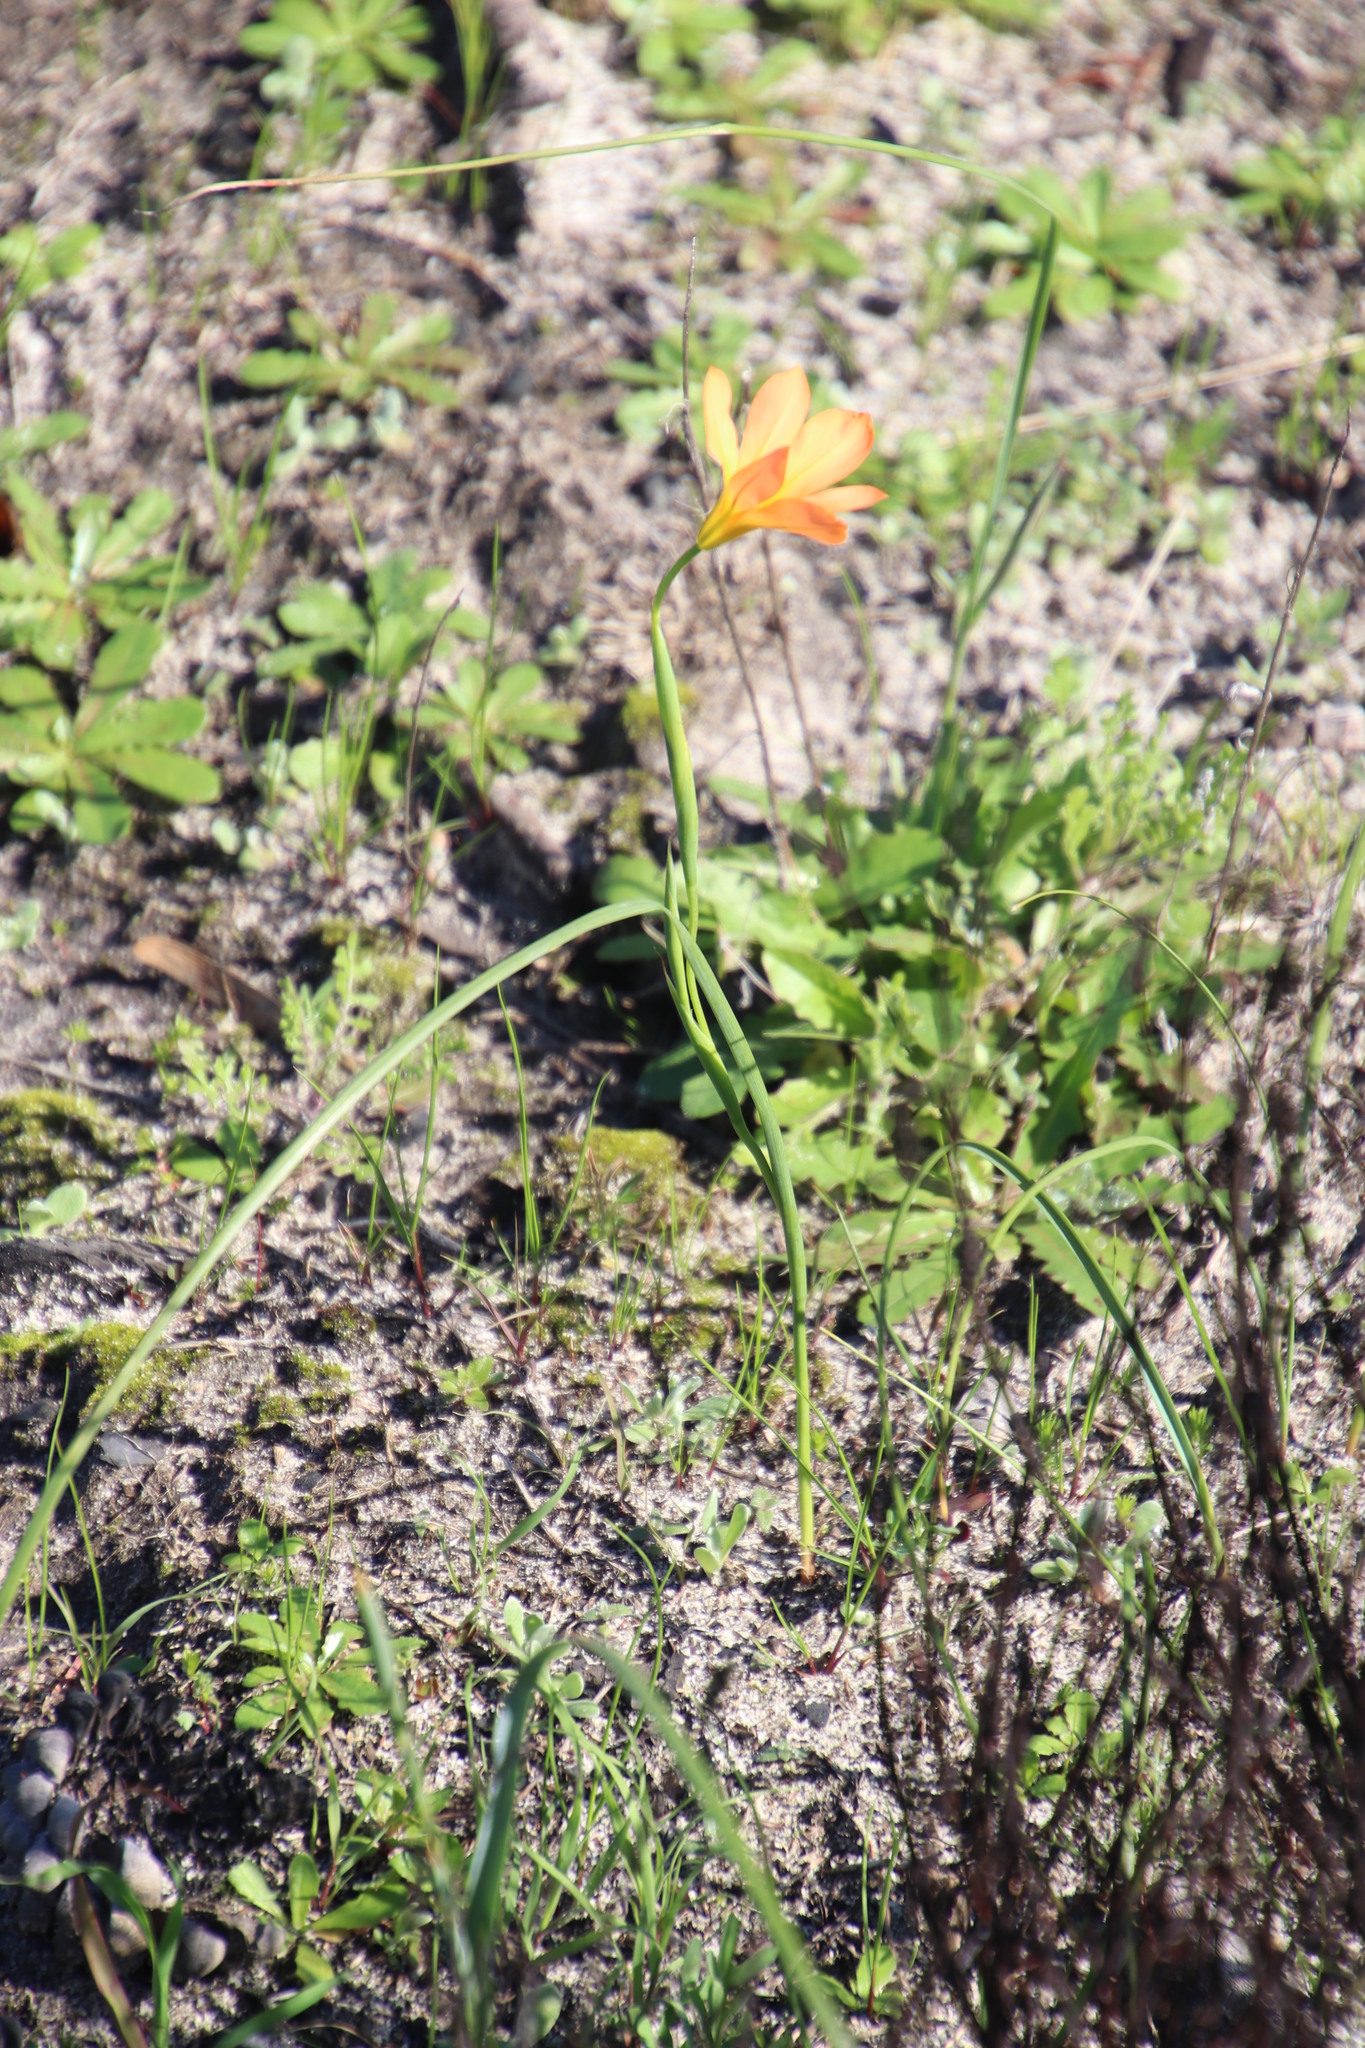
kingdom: Plantae
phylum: Tracheophyta
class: Liliopsida
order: Asparagales
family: Iridaceae
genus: Moraea
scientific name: Moraea collina
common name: Cape-tulip
